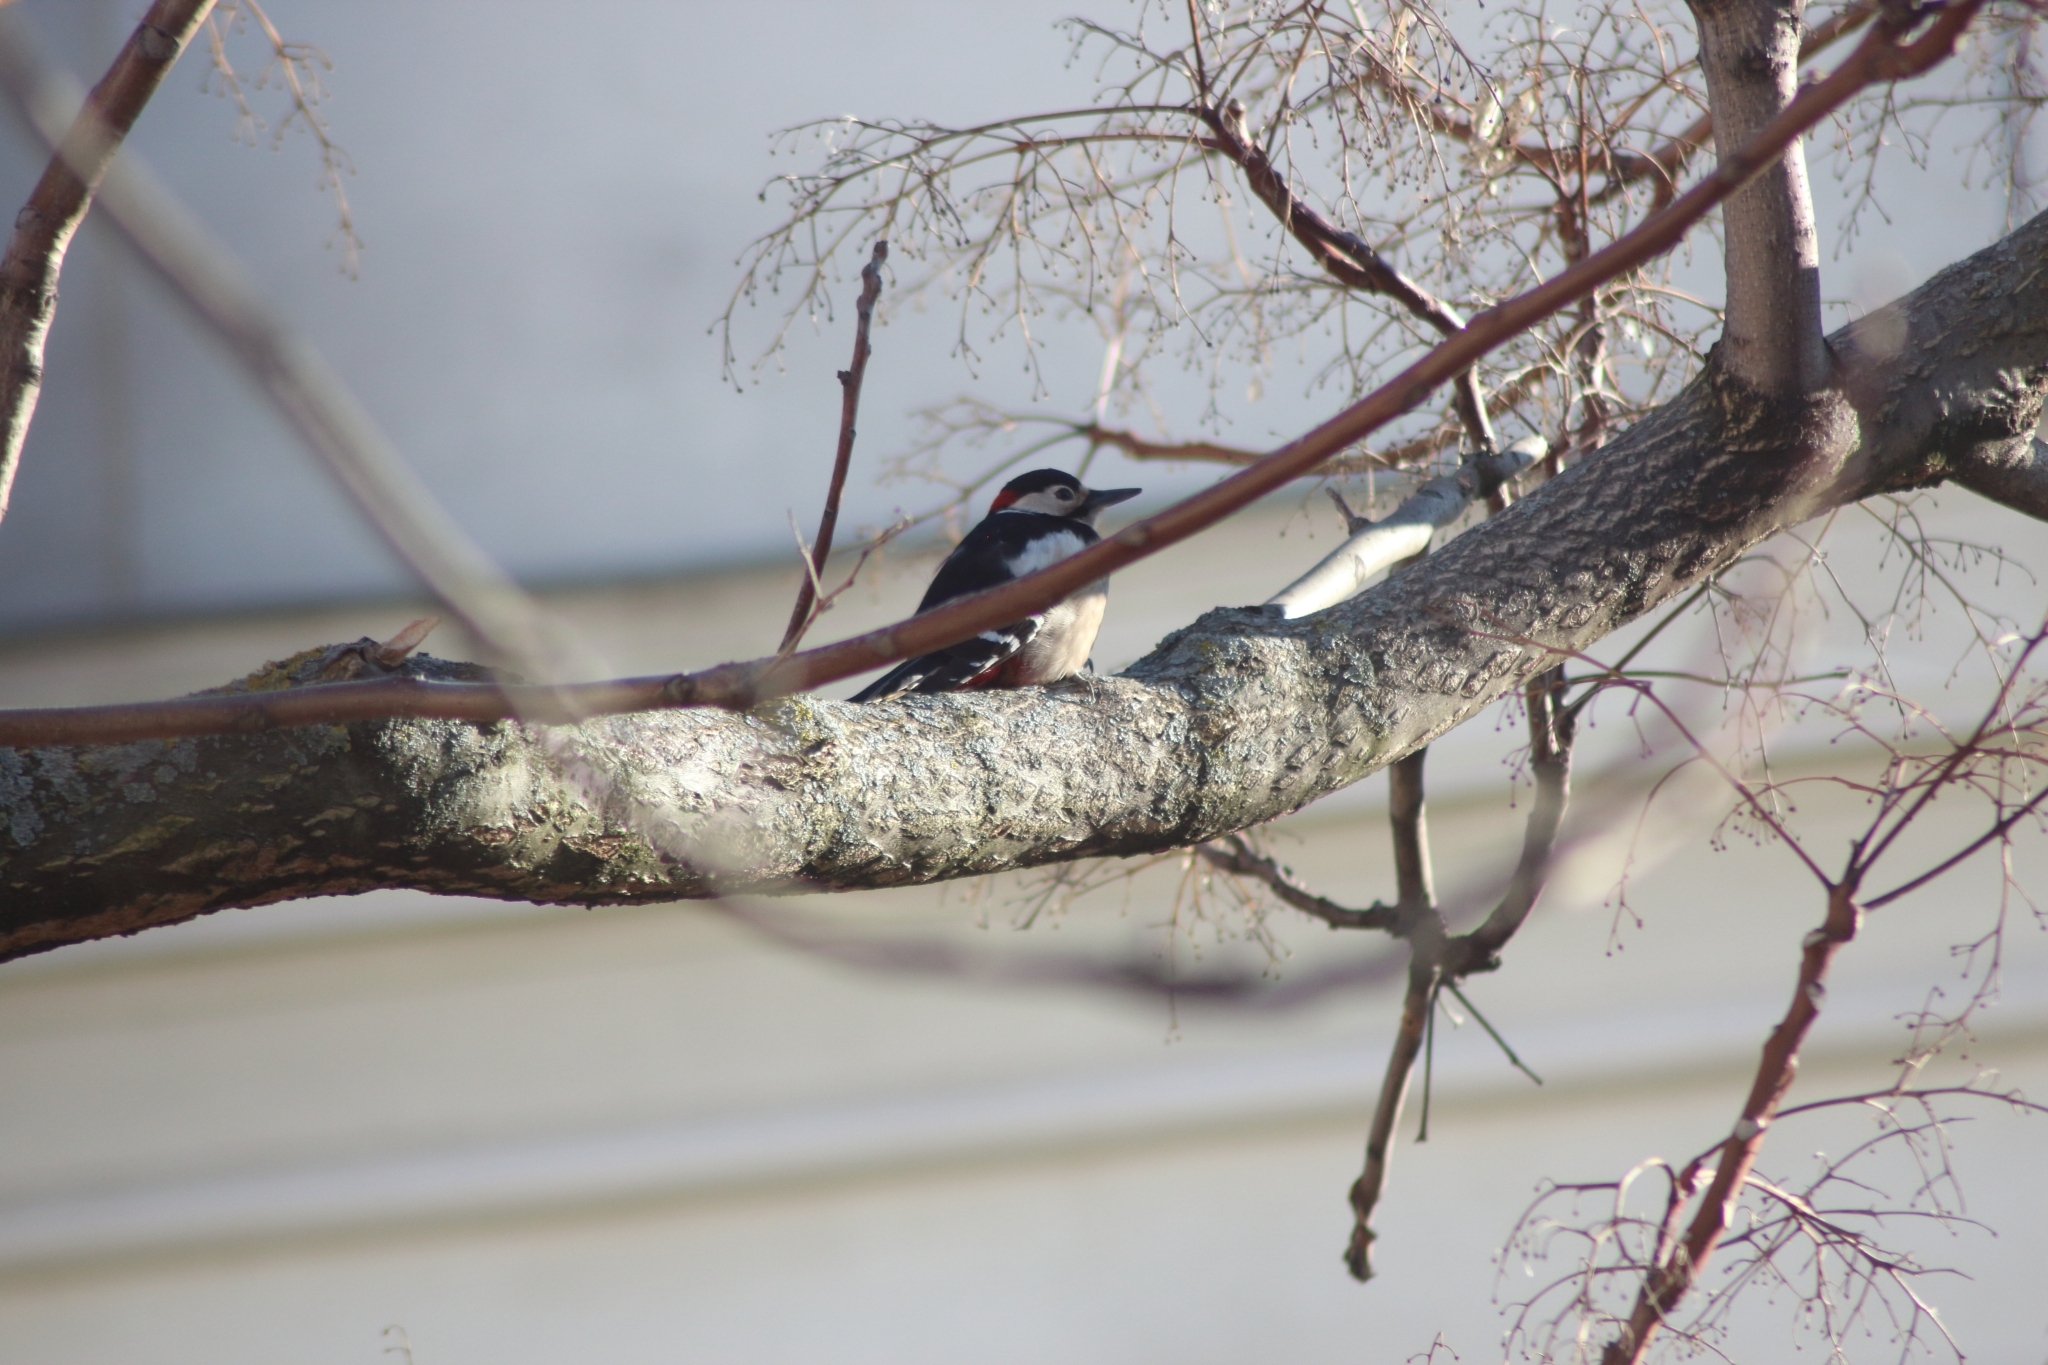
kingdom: Animalia
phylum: Chordata
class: Aves
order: Piciformes
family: Picidae
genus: Dendrocopos
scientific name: Dendrocopos major
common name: Great spotted woodpecker
